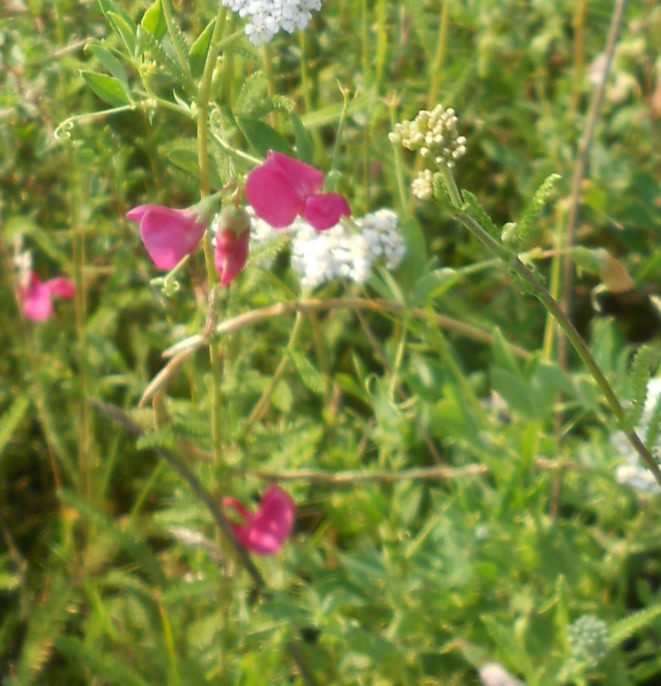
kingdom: Plantae
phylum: Tracheophyta
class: Magnoliopsida
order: Fabales
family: Fabaceae
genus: Lathyrus
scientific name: Lathyrus tuberosus
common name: Tuberous pea
